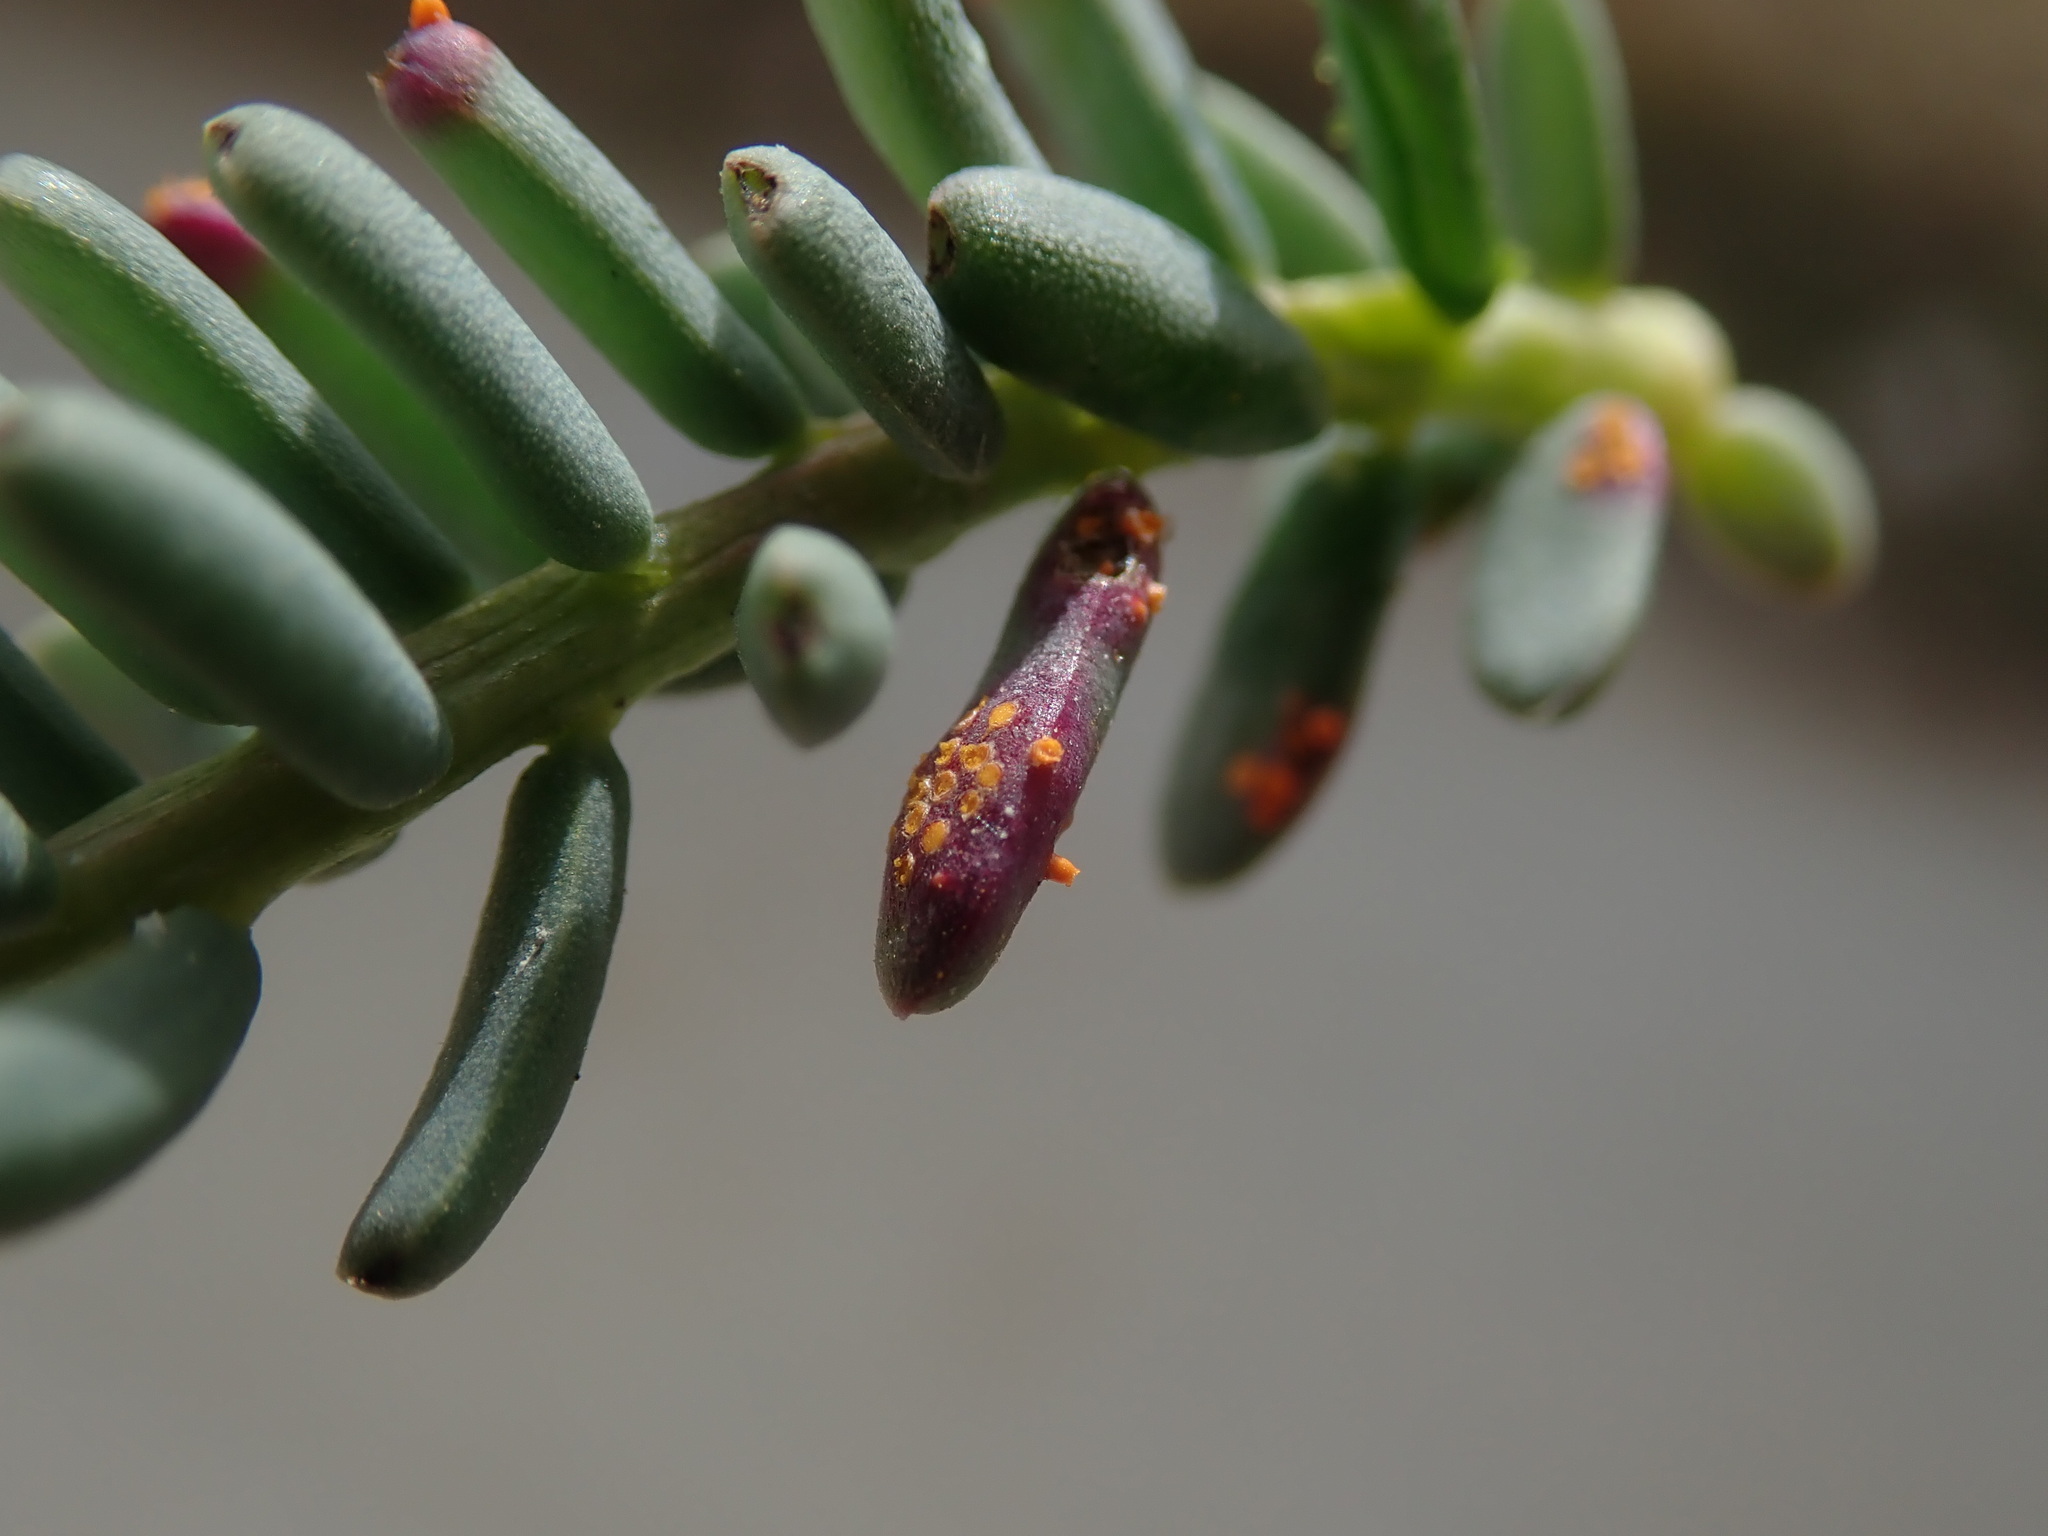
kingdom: Fungi
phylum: Basidiomycota
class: Pucciniomycetes
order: Pucciniales
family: Pucciniaceae
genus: Uromyces
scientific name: Uromyces chenopodii
